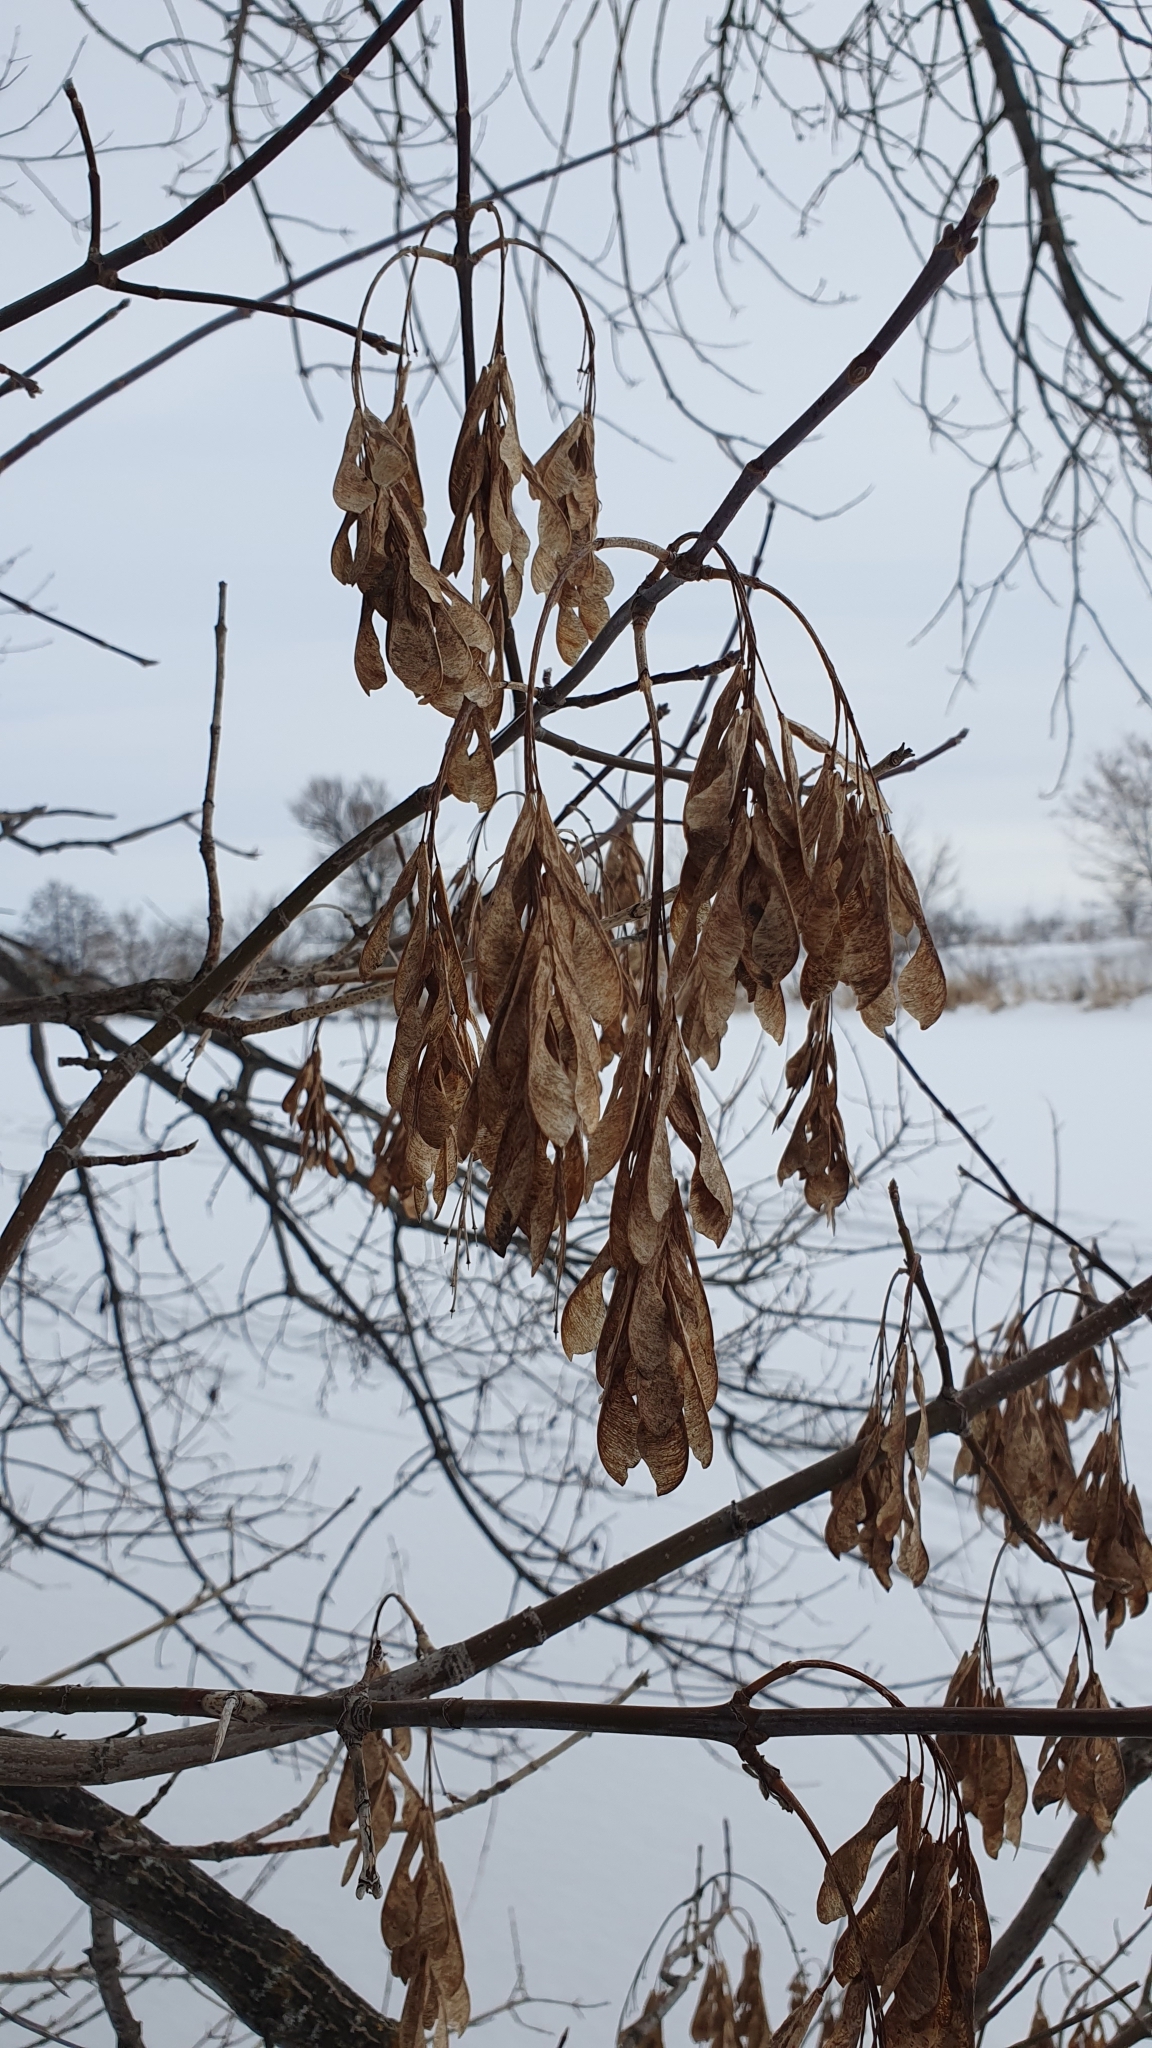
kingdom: Plantae
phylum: Tracheophyta
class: Magnoliopsida
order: Sapindales
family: Sapindaceae
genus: Acer
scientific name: Acer negundo
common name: Ashleaf maple
